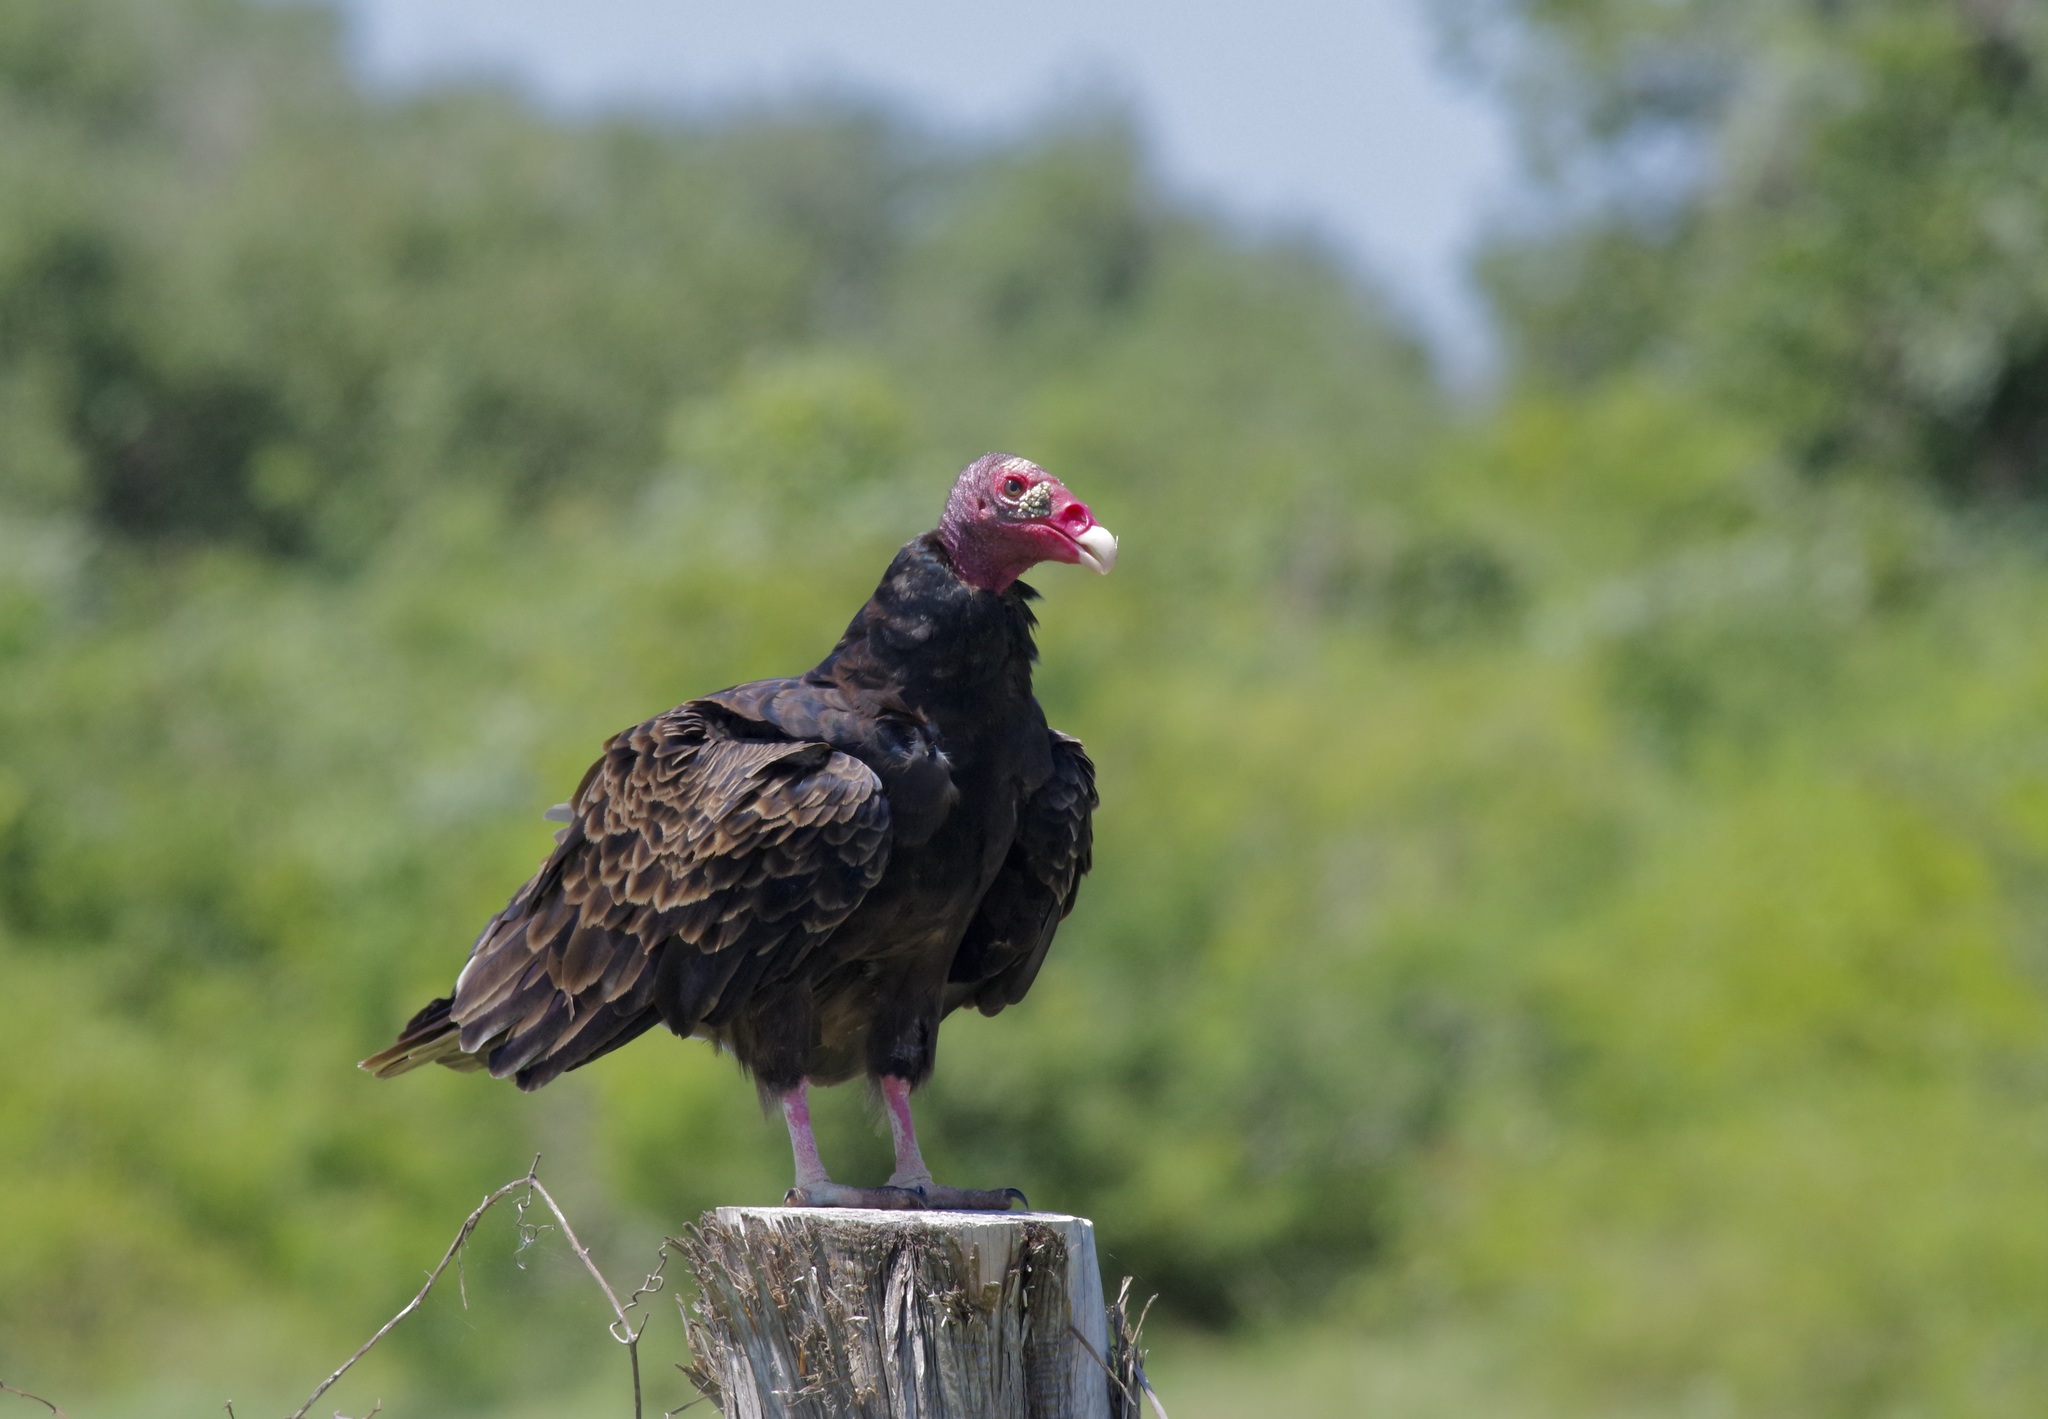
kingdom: Animalia
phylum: Chordata
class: Aves
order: Accipitriformes
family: Cathartidae
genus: Cathartes
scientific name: Cathartes aura
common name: Turkey vulture
